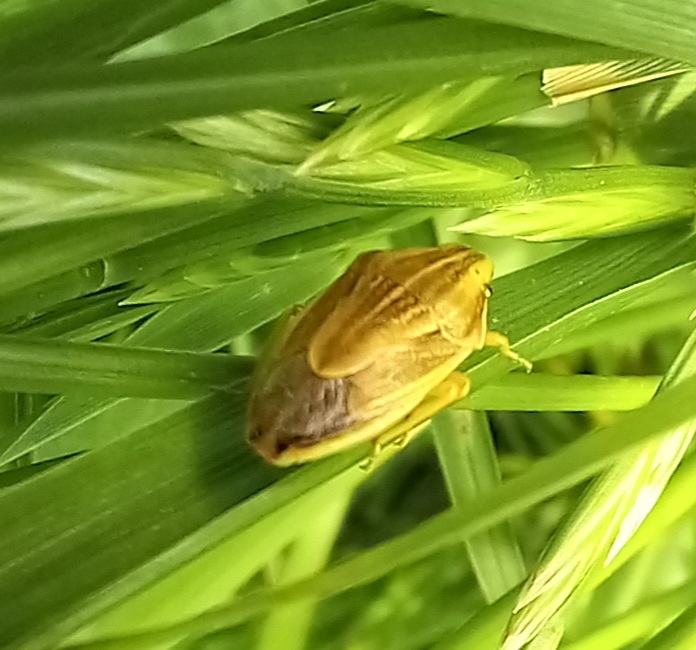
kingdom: Animalia
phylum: Arthropoda
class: Insecta
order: Hemiptera
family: Pentatomidae
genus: Aelia
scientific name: Aelia acuminata
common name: Bishop's mitre
